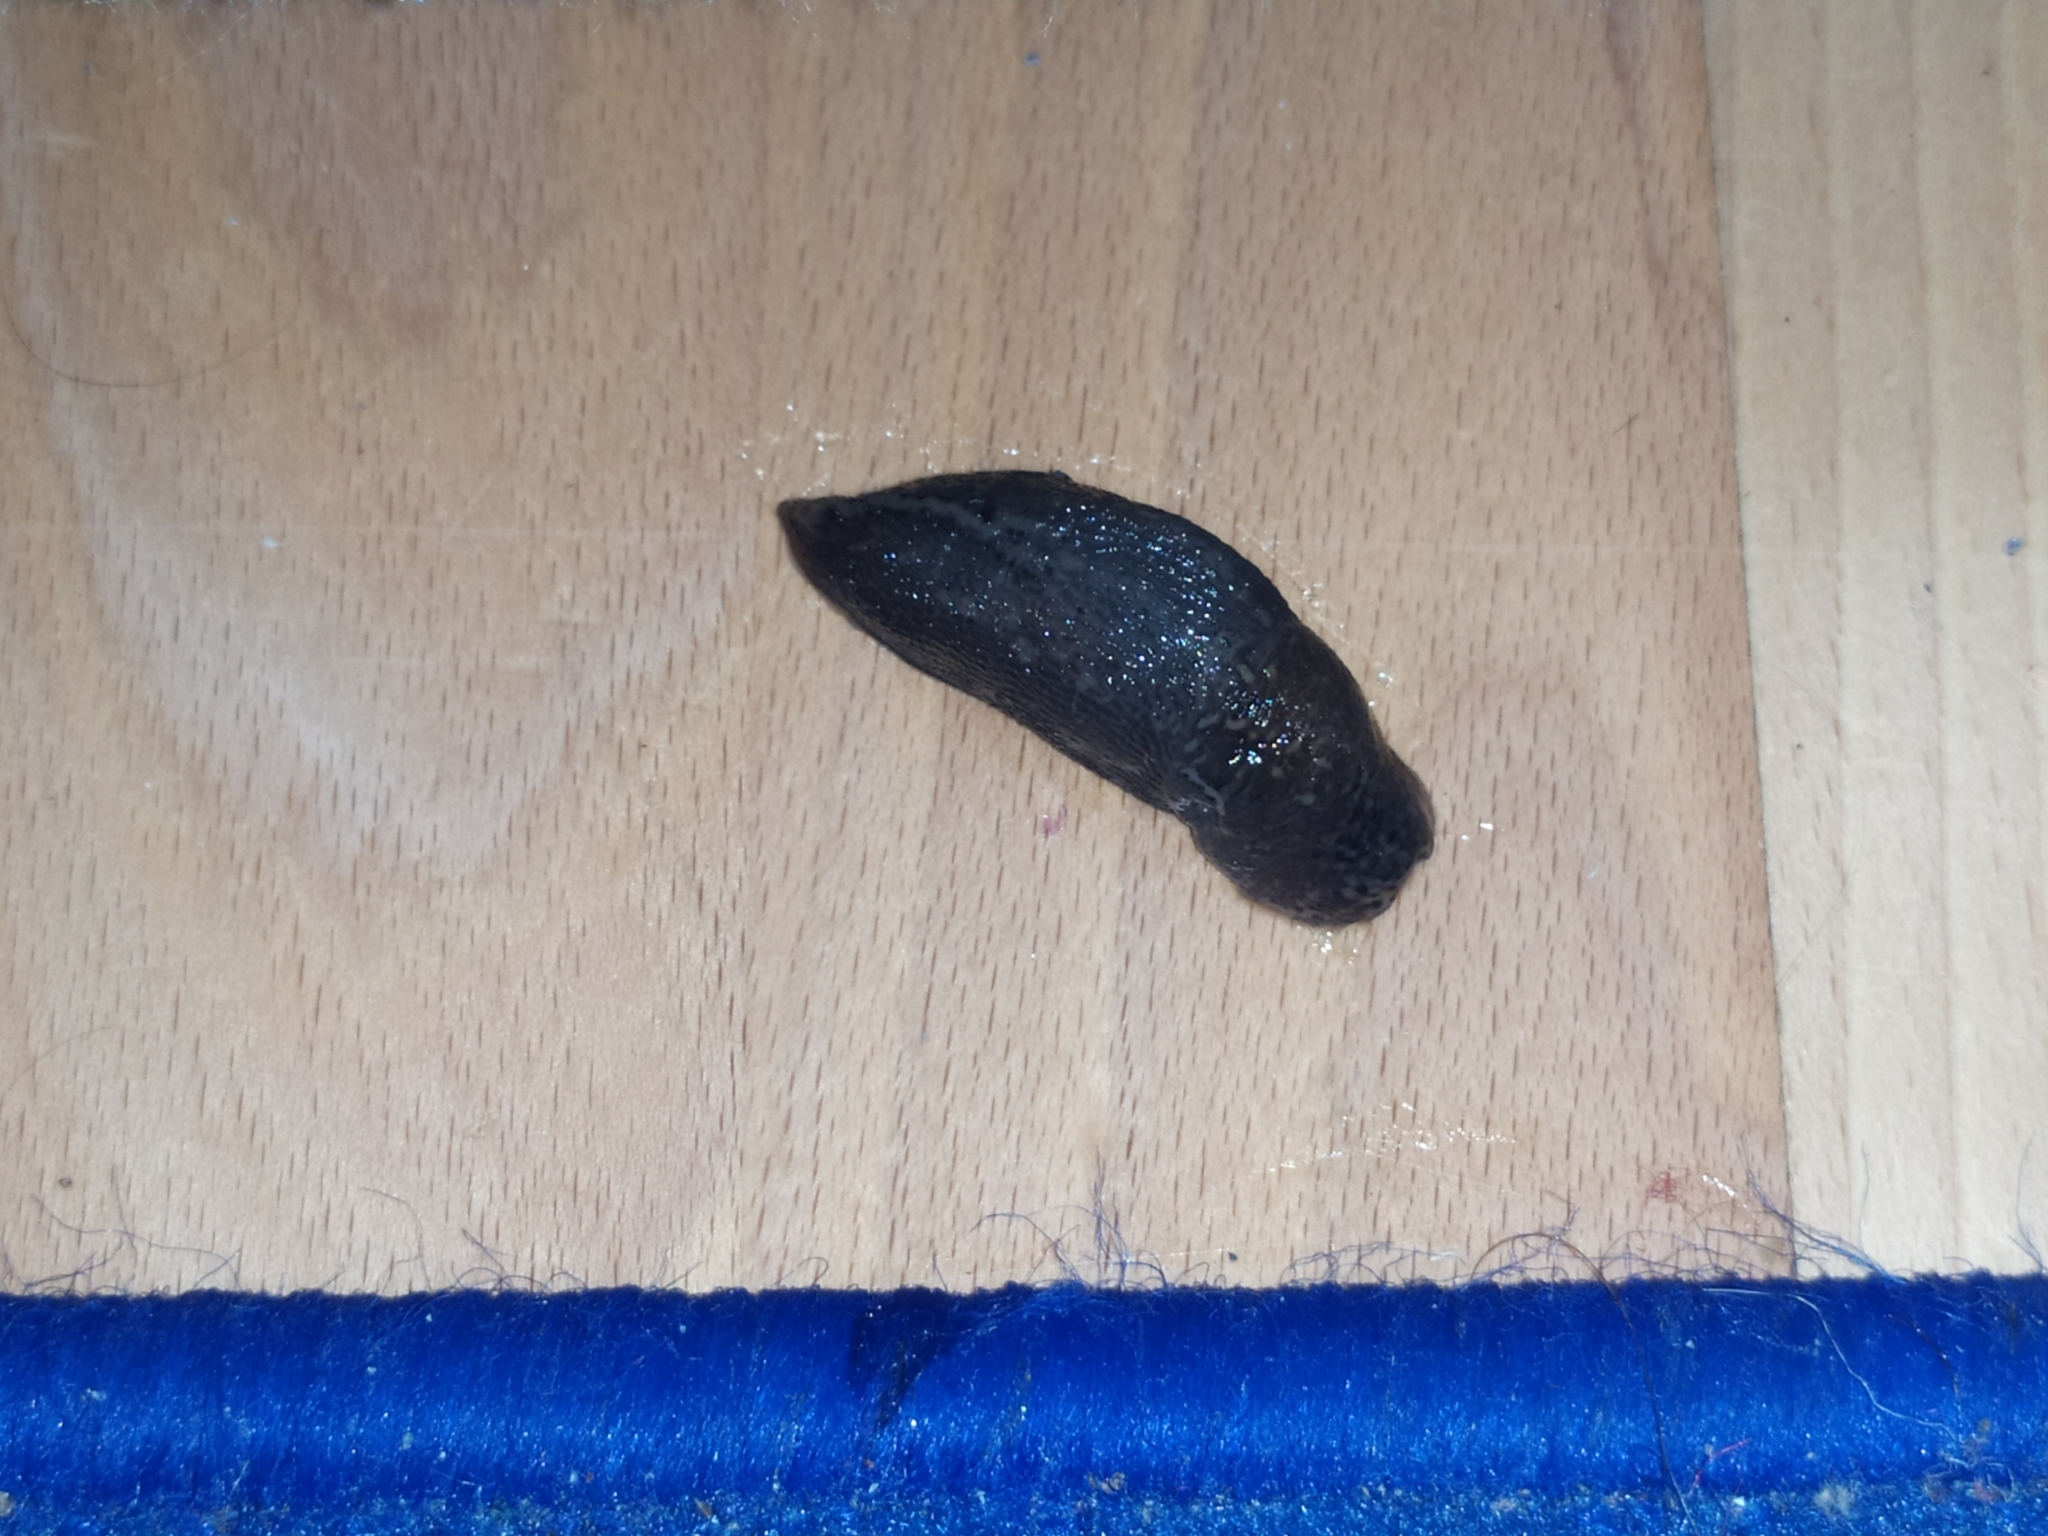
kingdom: Animalia
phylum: Mollusca
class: Gastropoda
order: Stylommatophora
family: Limacidae
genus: Limax
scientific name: Limax maximus
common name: Great grey slug
